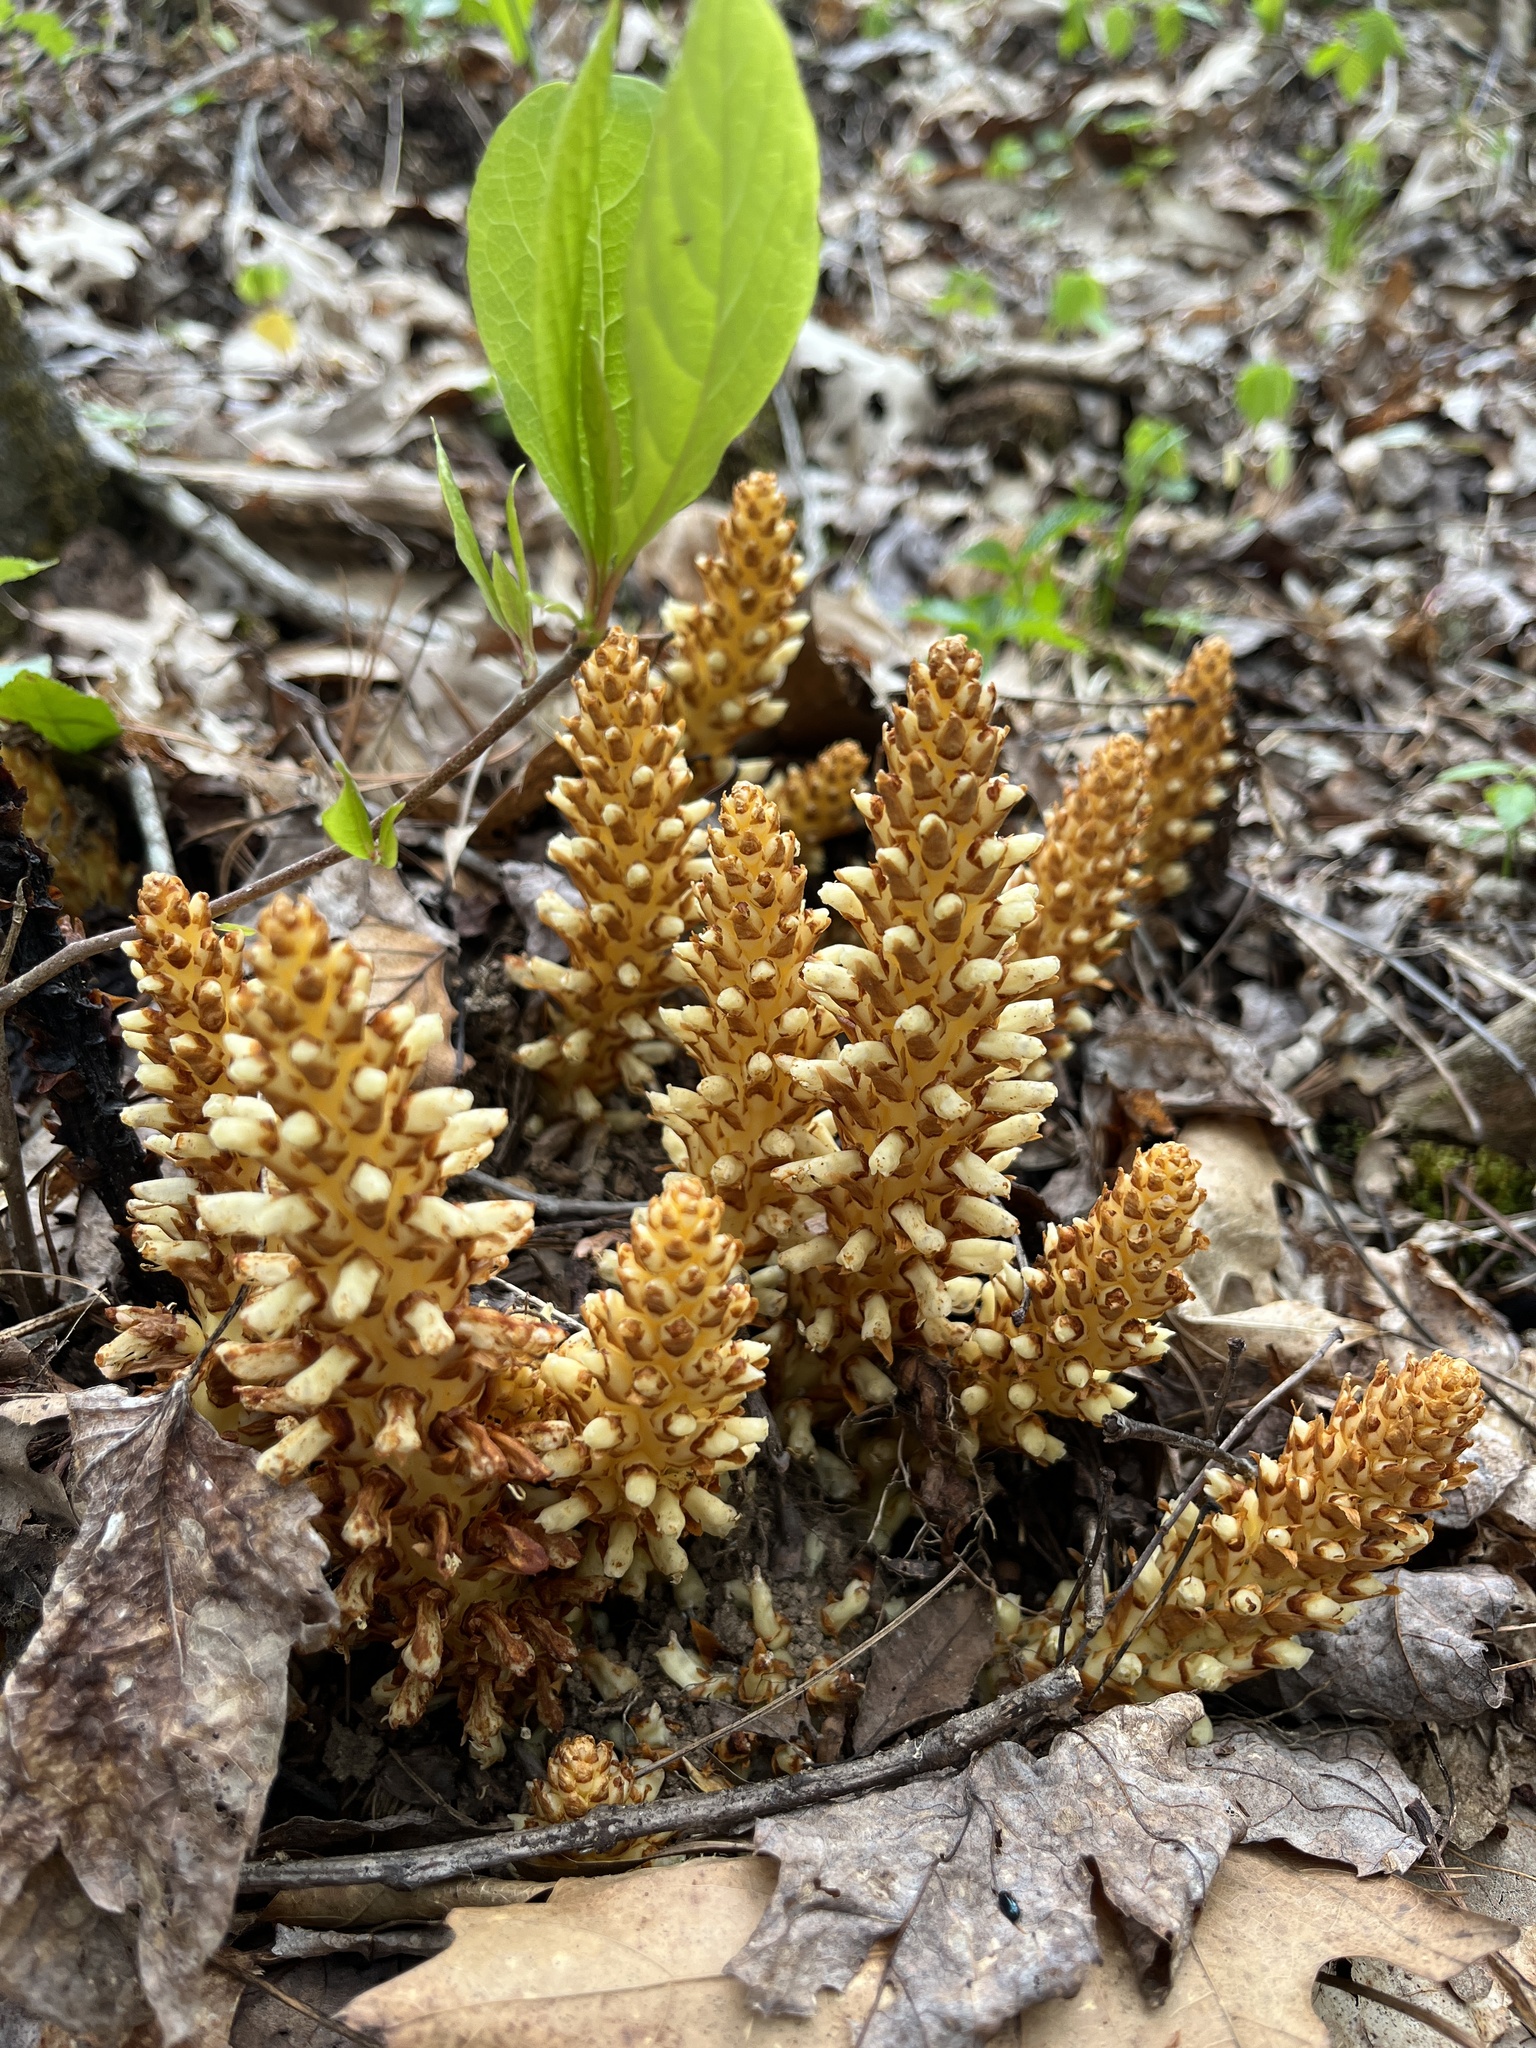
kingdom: Plantae
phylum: Tracheophyta
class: Magnoliopsida
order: Lamiales
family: Orobanchaceae
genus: Conopholis
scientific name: Conopholis americana
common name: American cancer-root
